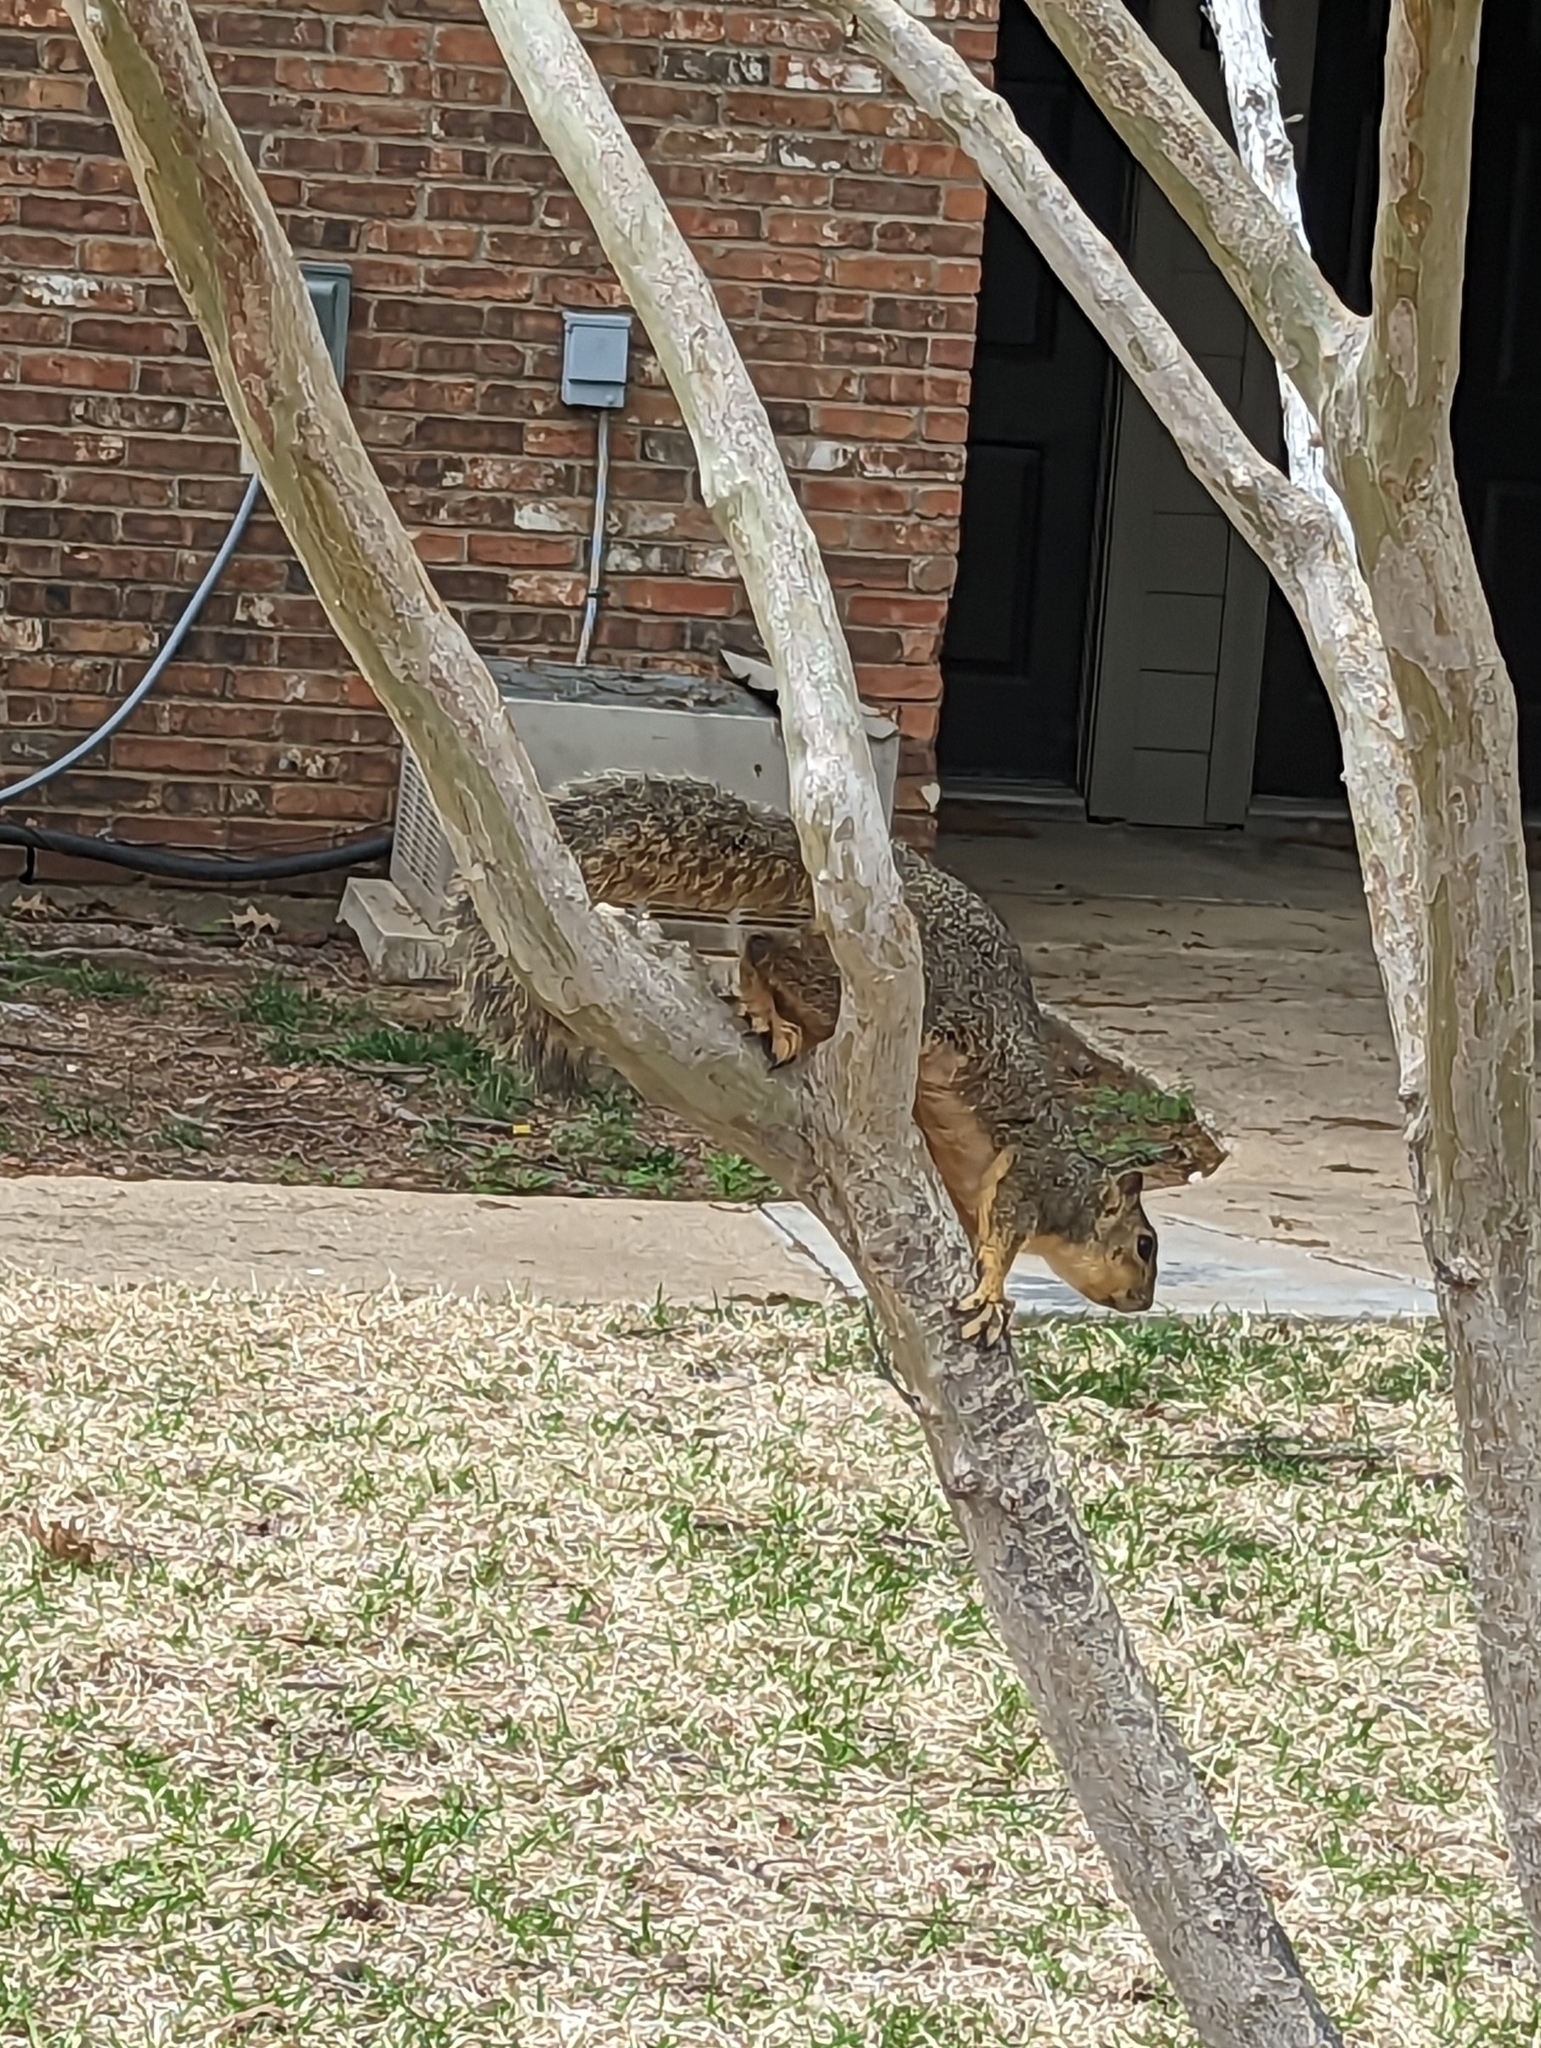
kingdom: Animalia
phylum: Chordata
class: Mammalia
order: Rodentia
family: Sciuridae
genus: Sciurus
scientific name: Sciurus niger
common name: Fox squirrel
